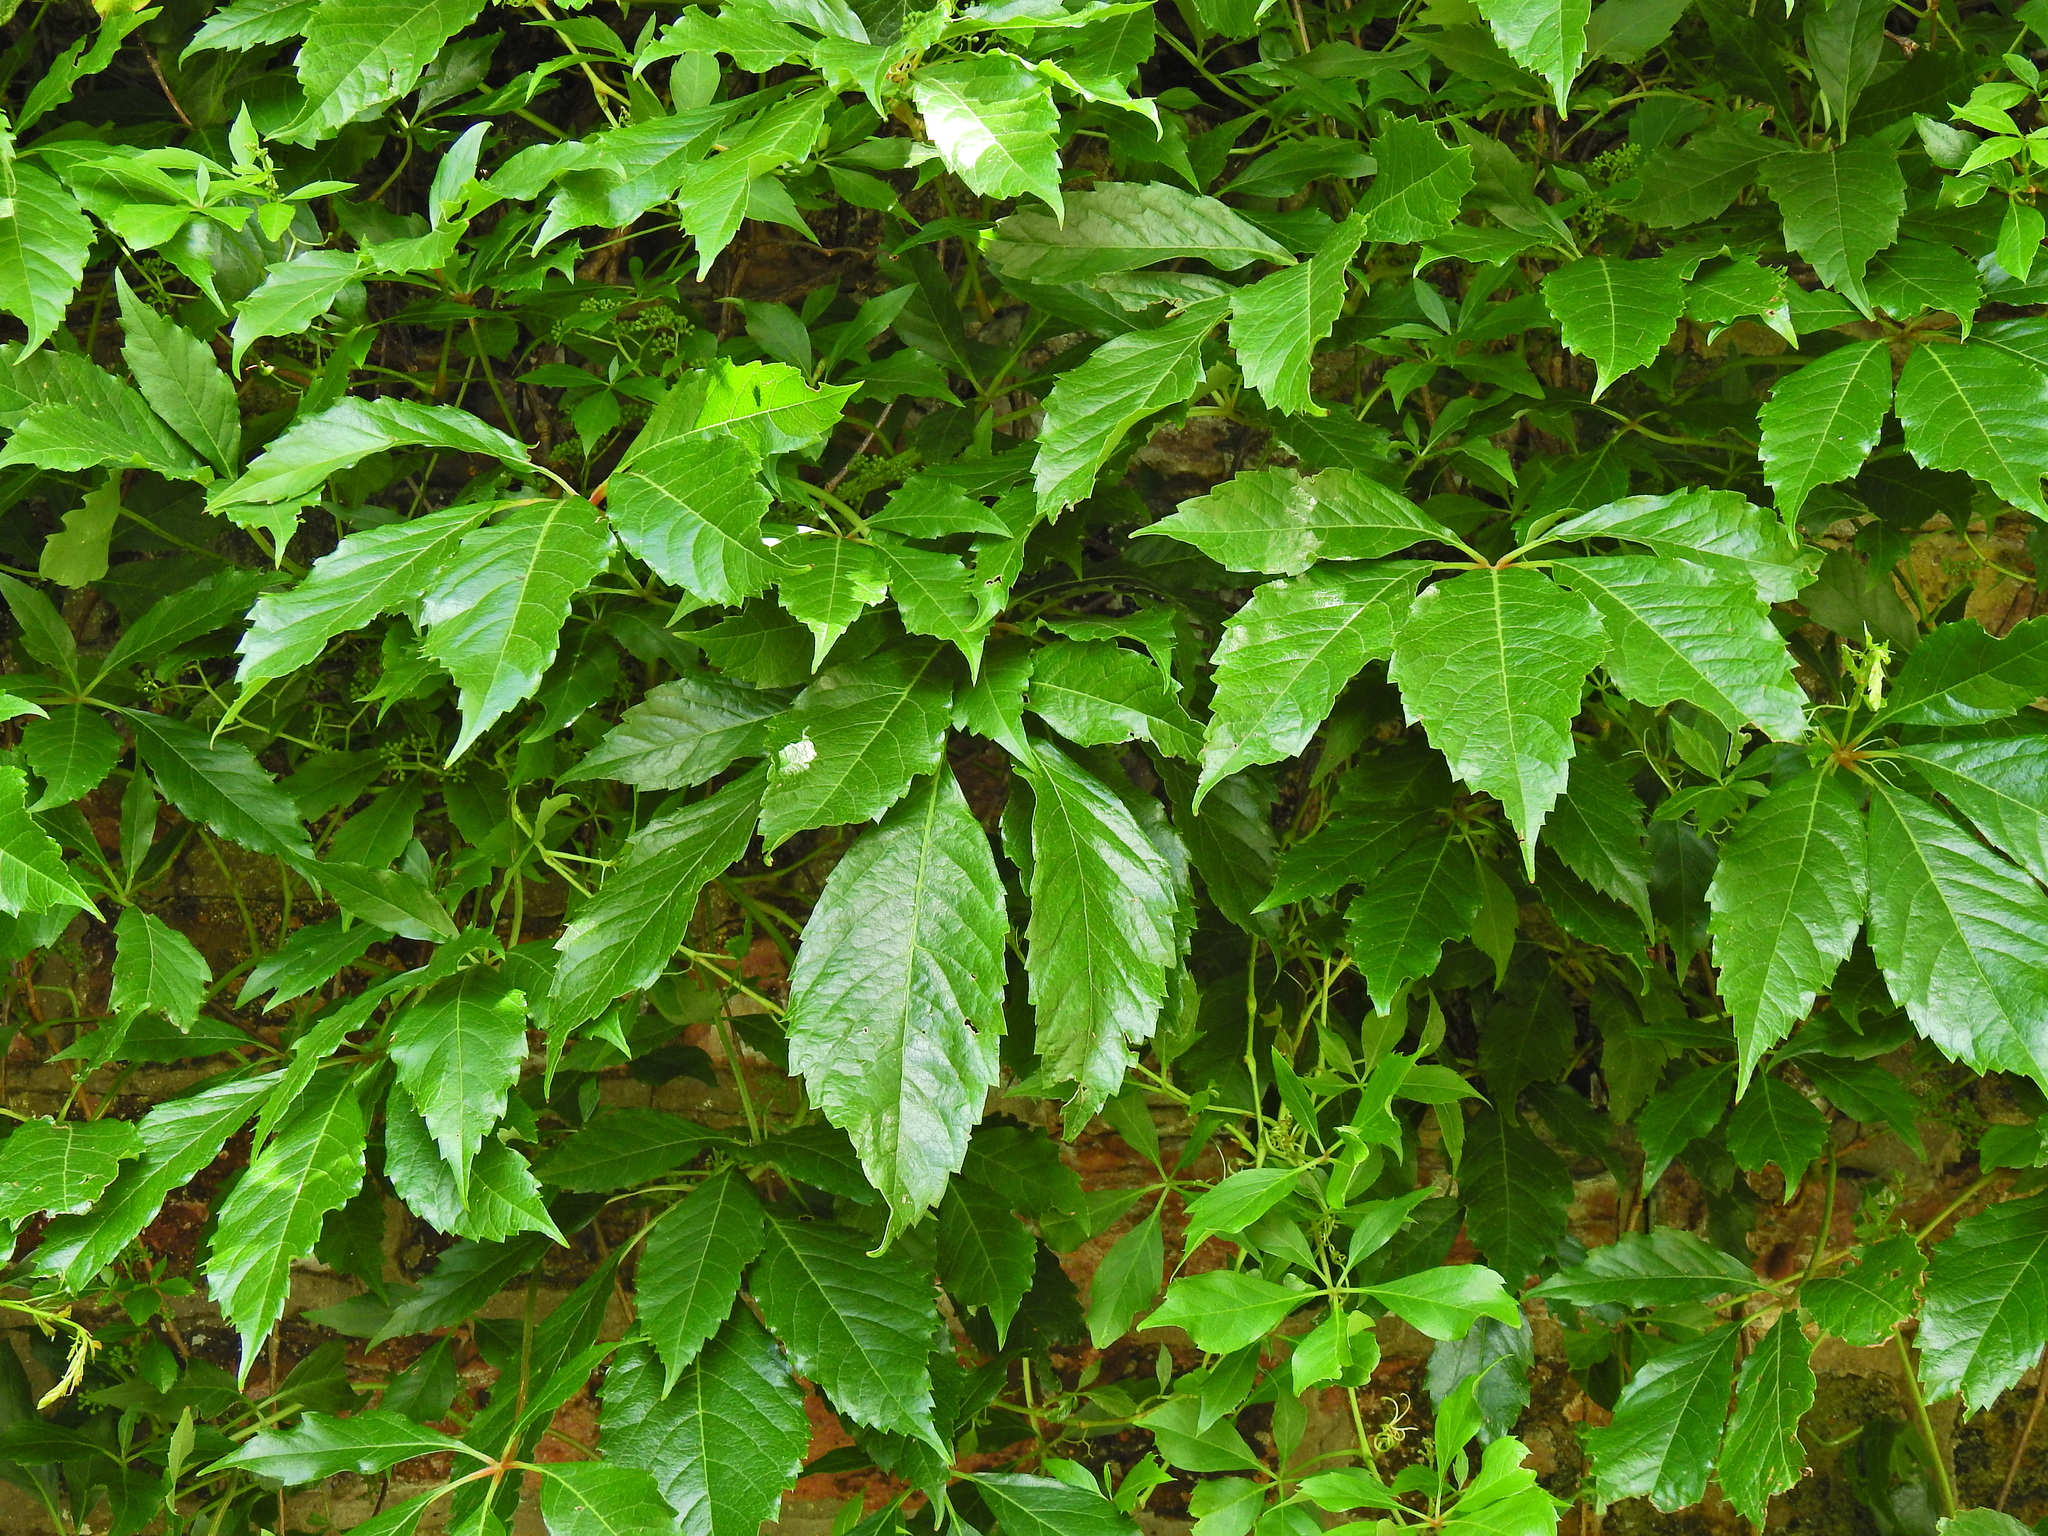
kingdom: Plantae
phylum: Tracheophyta
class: Magnoliopsida
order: Vitales
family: Vitaceae
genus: Parthenocissus
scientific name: Parthenocissus quinquefolia
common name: Virginia-creeper
